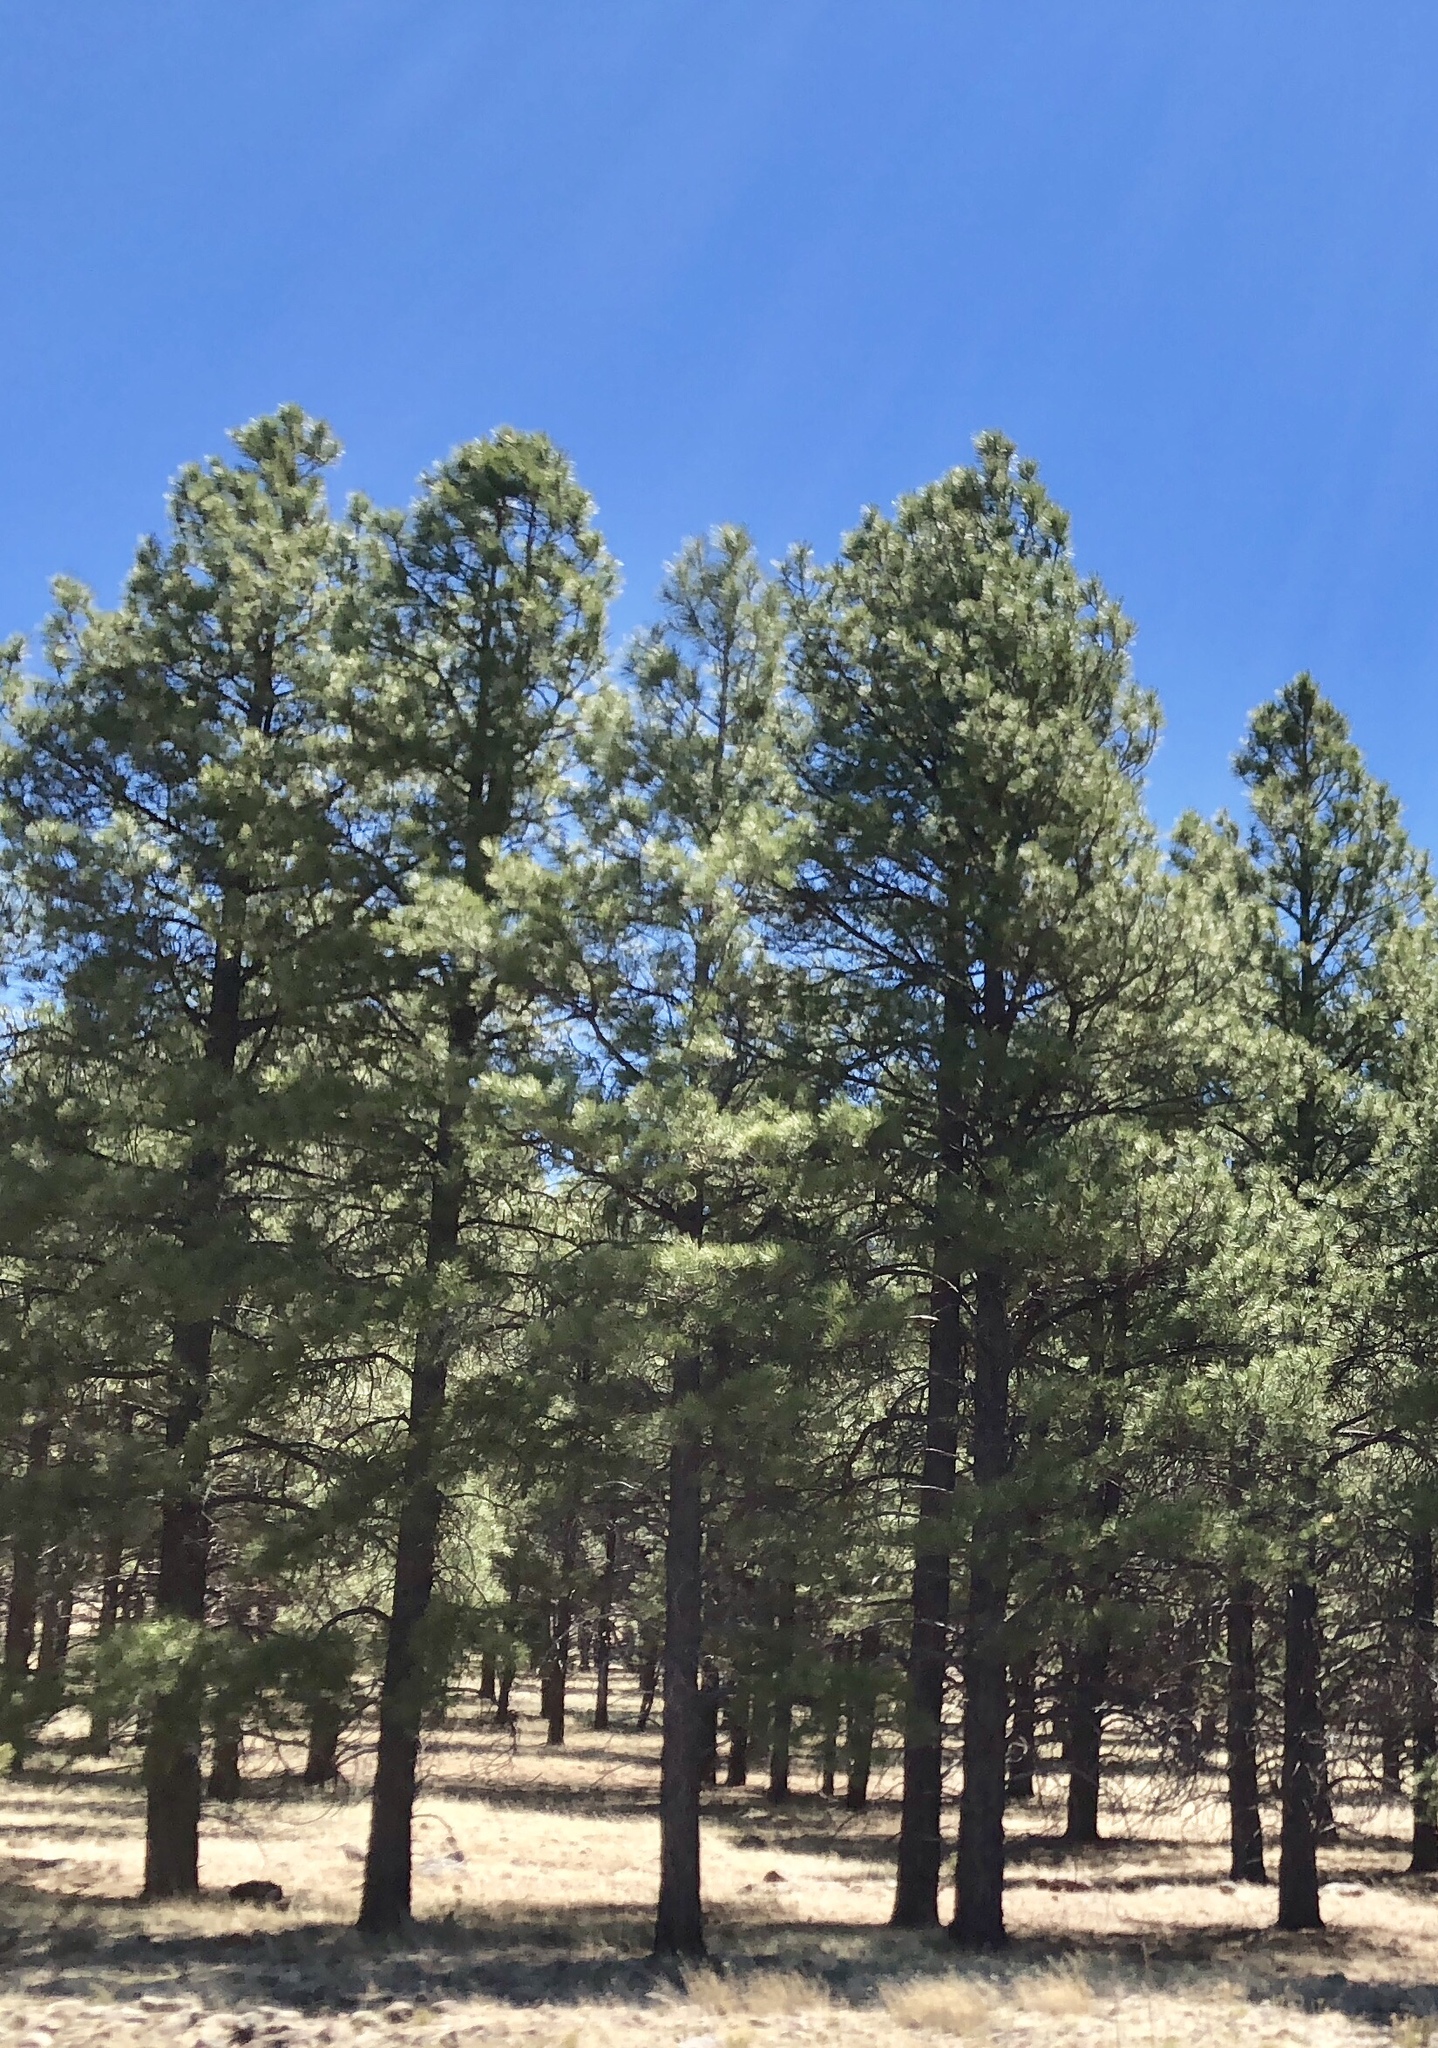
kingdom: Plantae
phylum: Tracheophyta
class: Pinopsida
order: Pinales
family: Pinaceae
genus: Pinus
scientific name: Pinus ponderosa
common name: Western yellow-pine
